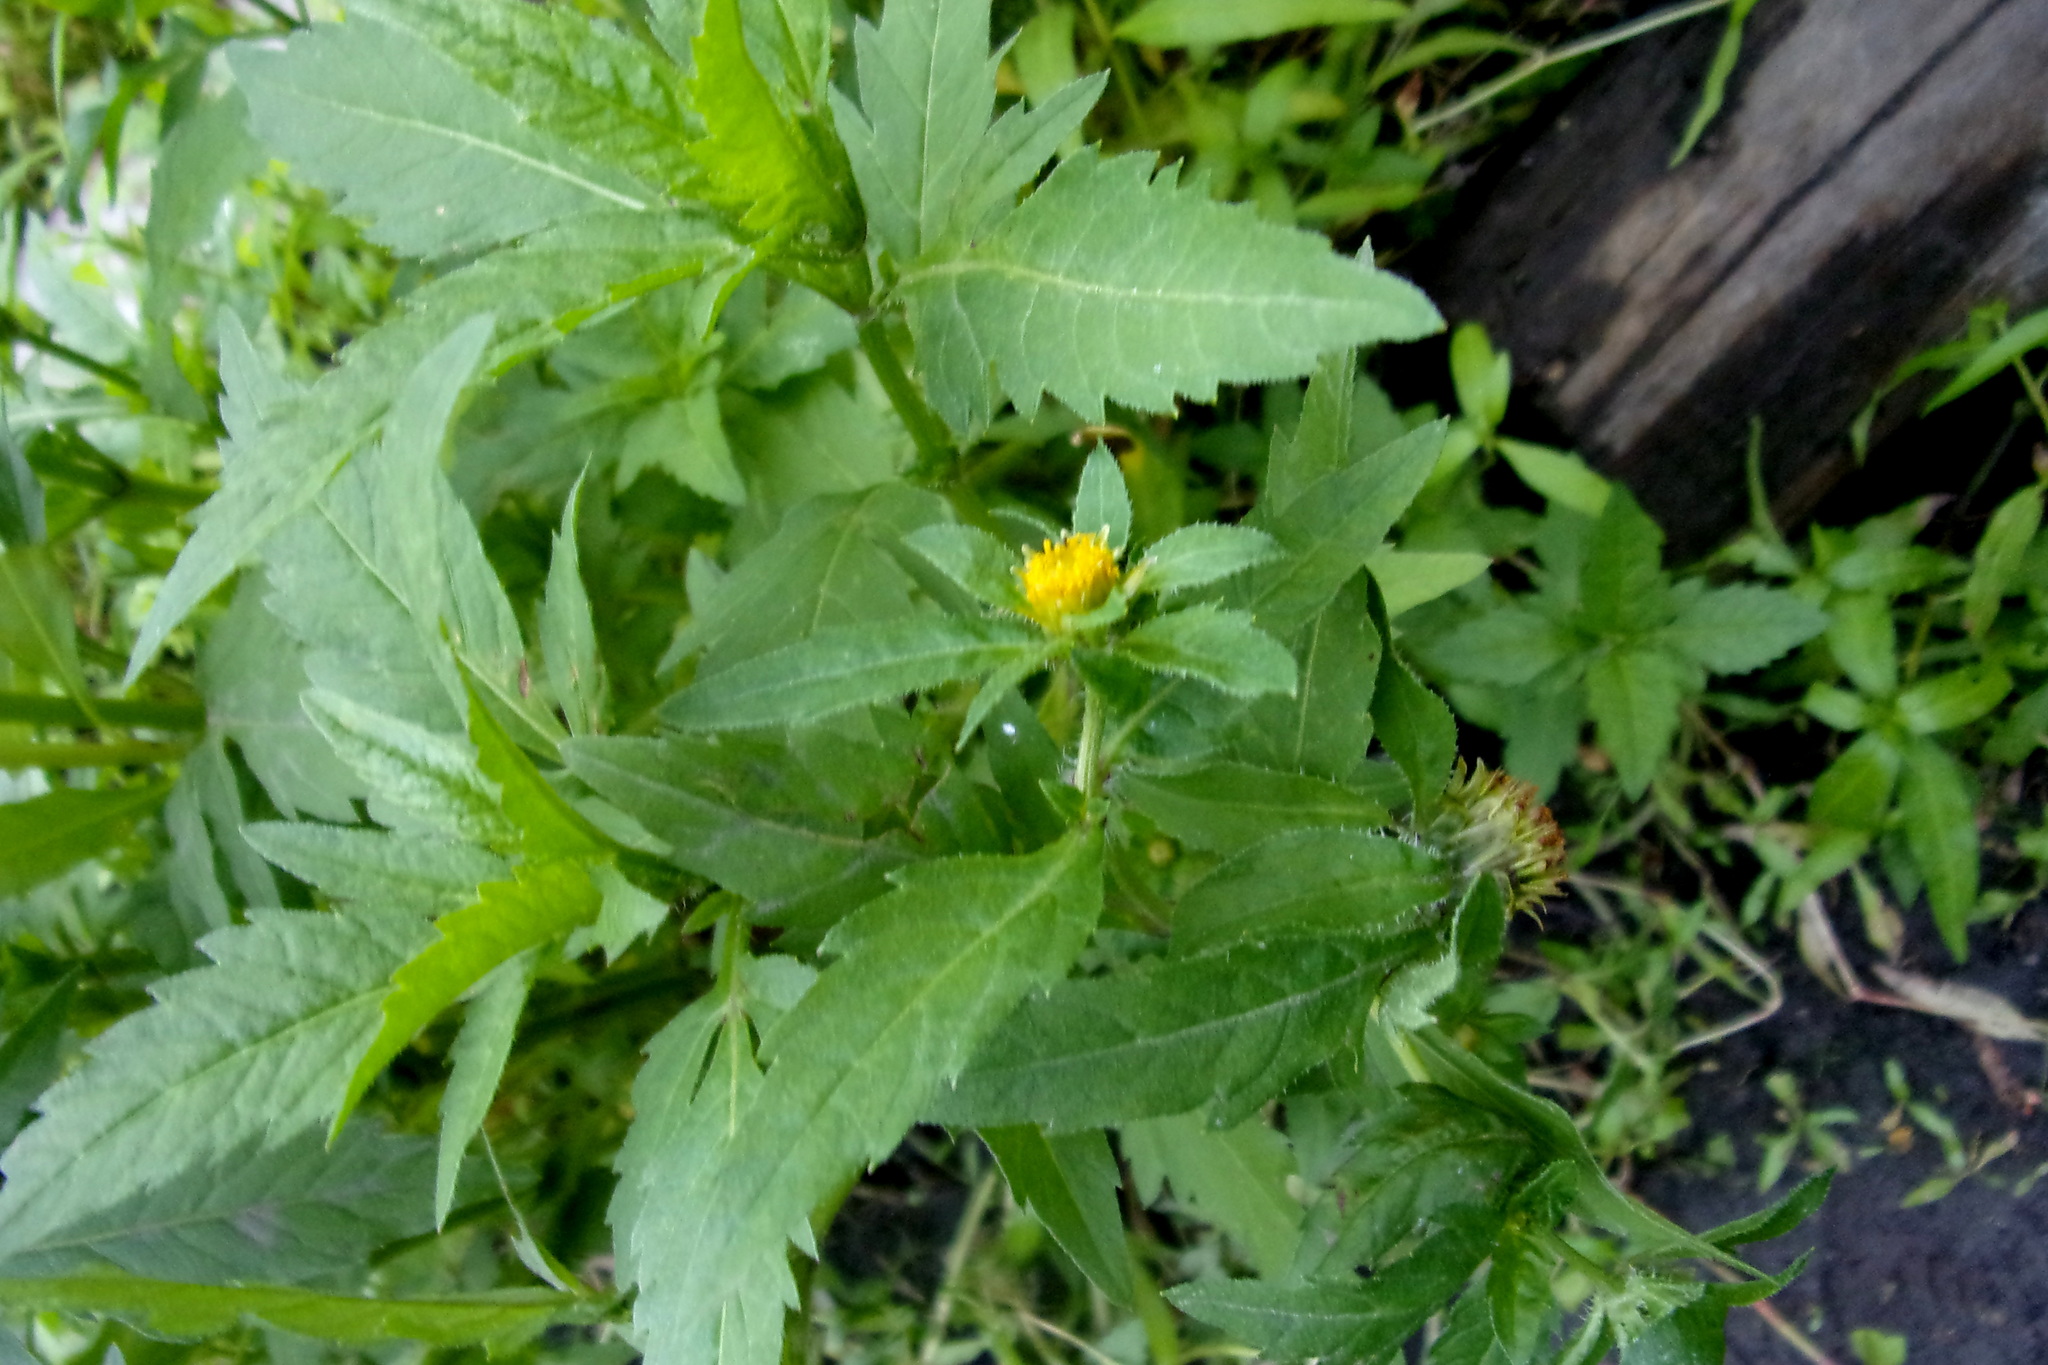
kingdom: Plantae
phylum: Tracheophyta
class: Magnoliopsida
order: Asterales
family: Asteraceae
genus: Bidens
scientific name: Bidens tripartita
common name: Trifid bur-marigold
